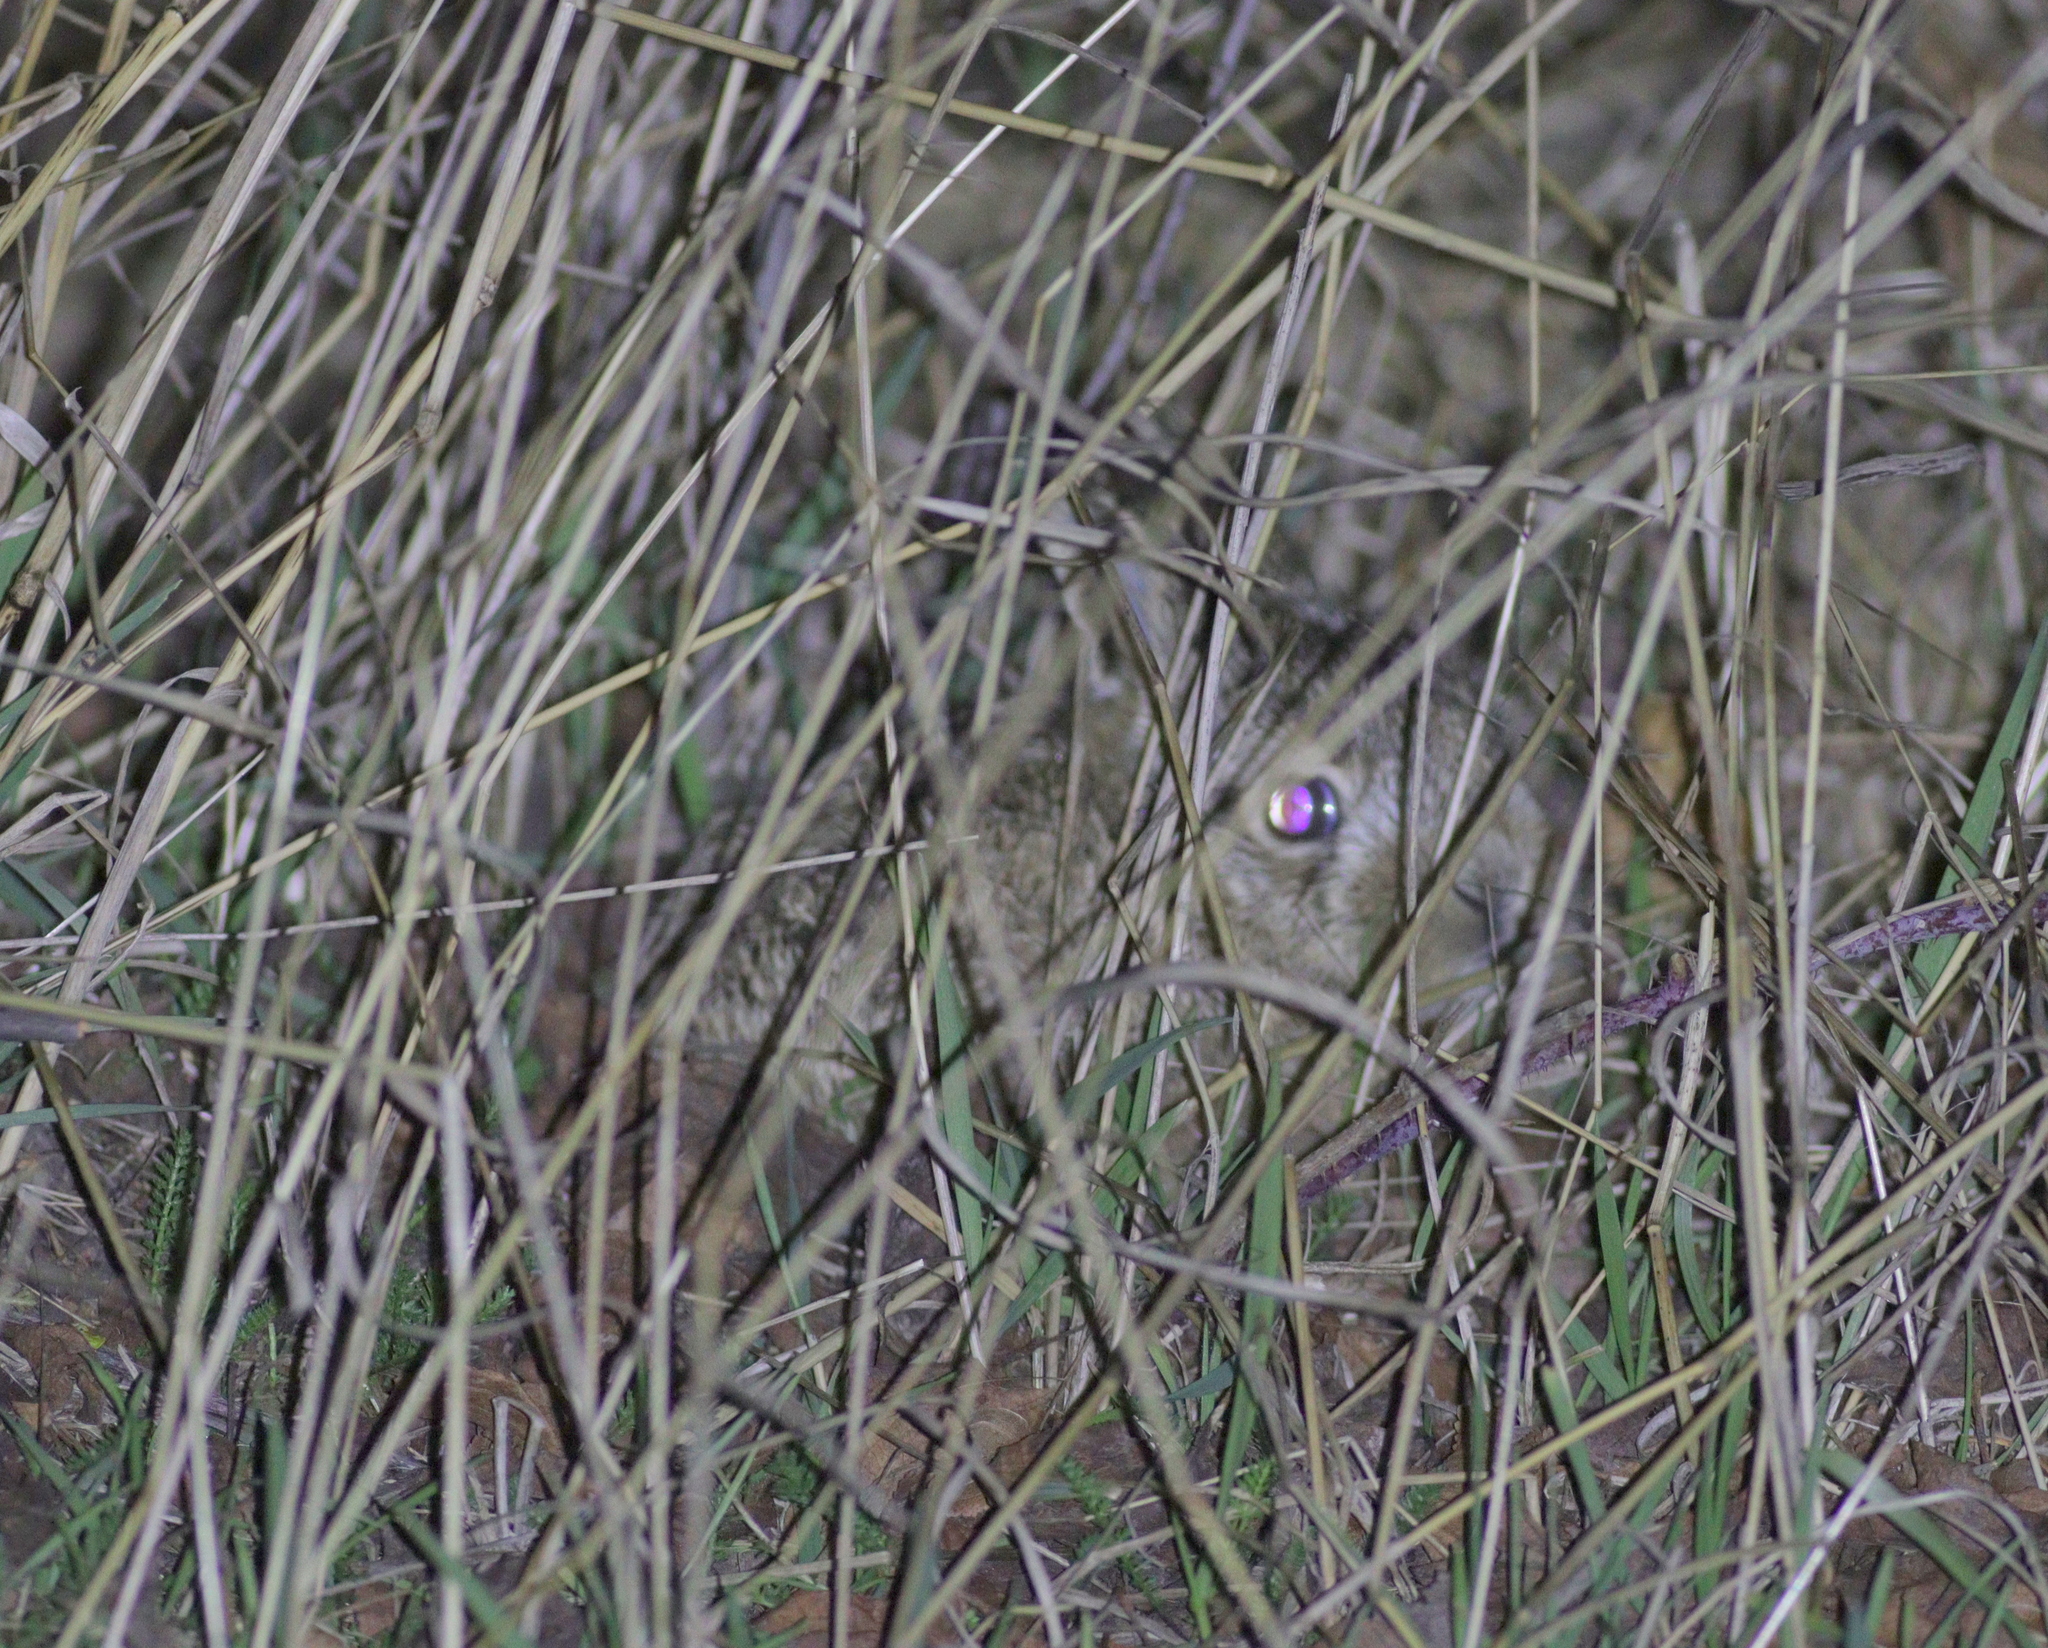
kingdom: Animalia
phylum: Chordata
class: Mammalia
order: Lagomorpha
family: Leporidae
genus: Lepus
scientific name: Lepus europaeus
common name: European hare
